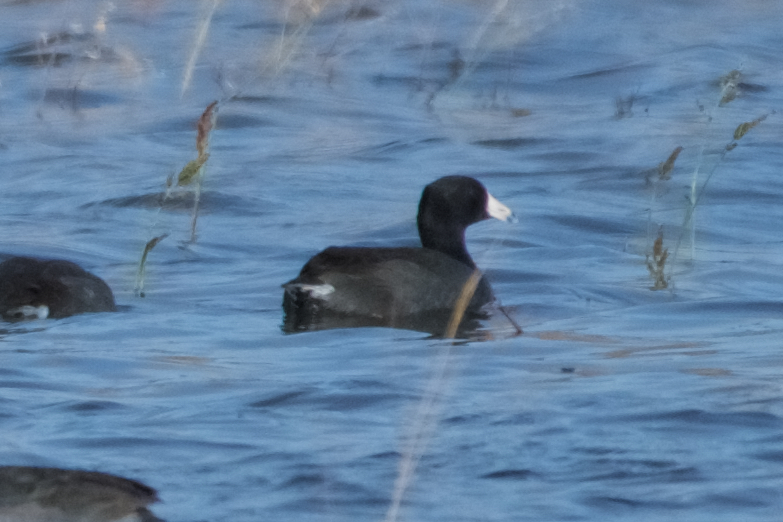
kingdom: Animalia
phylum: Chordata
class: Aves
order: Gruiformes
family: Rallidae
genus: Fulica
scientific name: Fulica americana
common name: American coot
